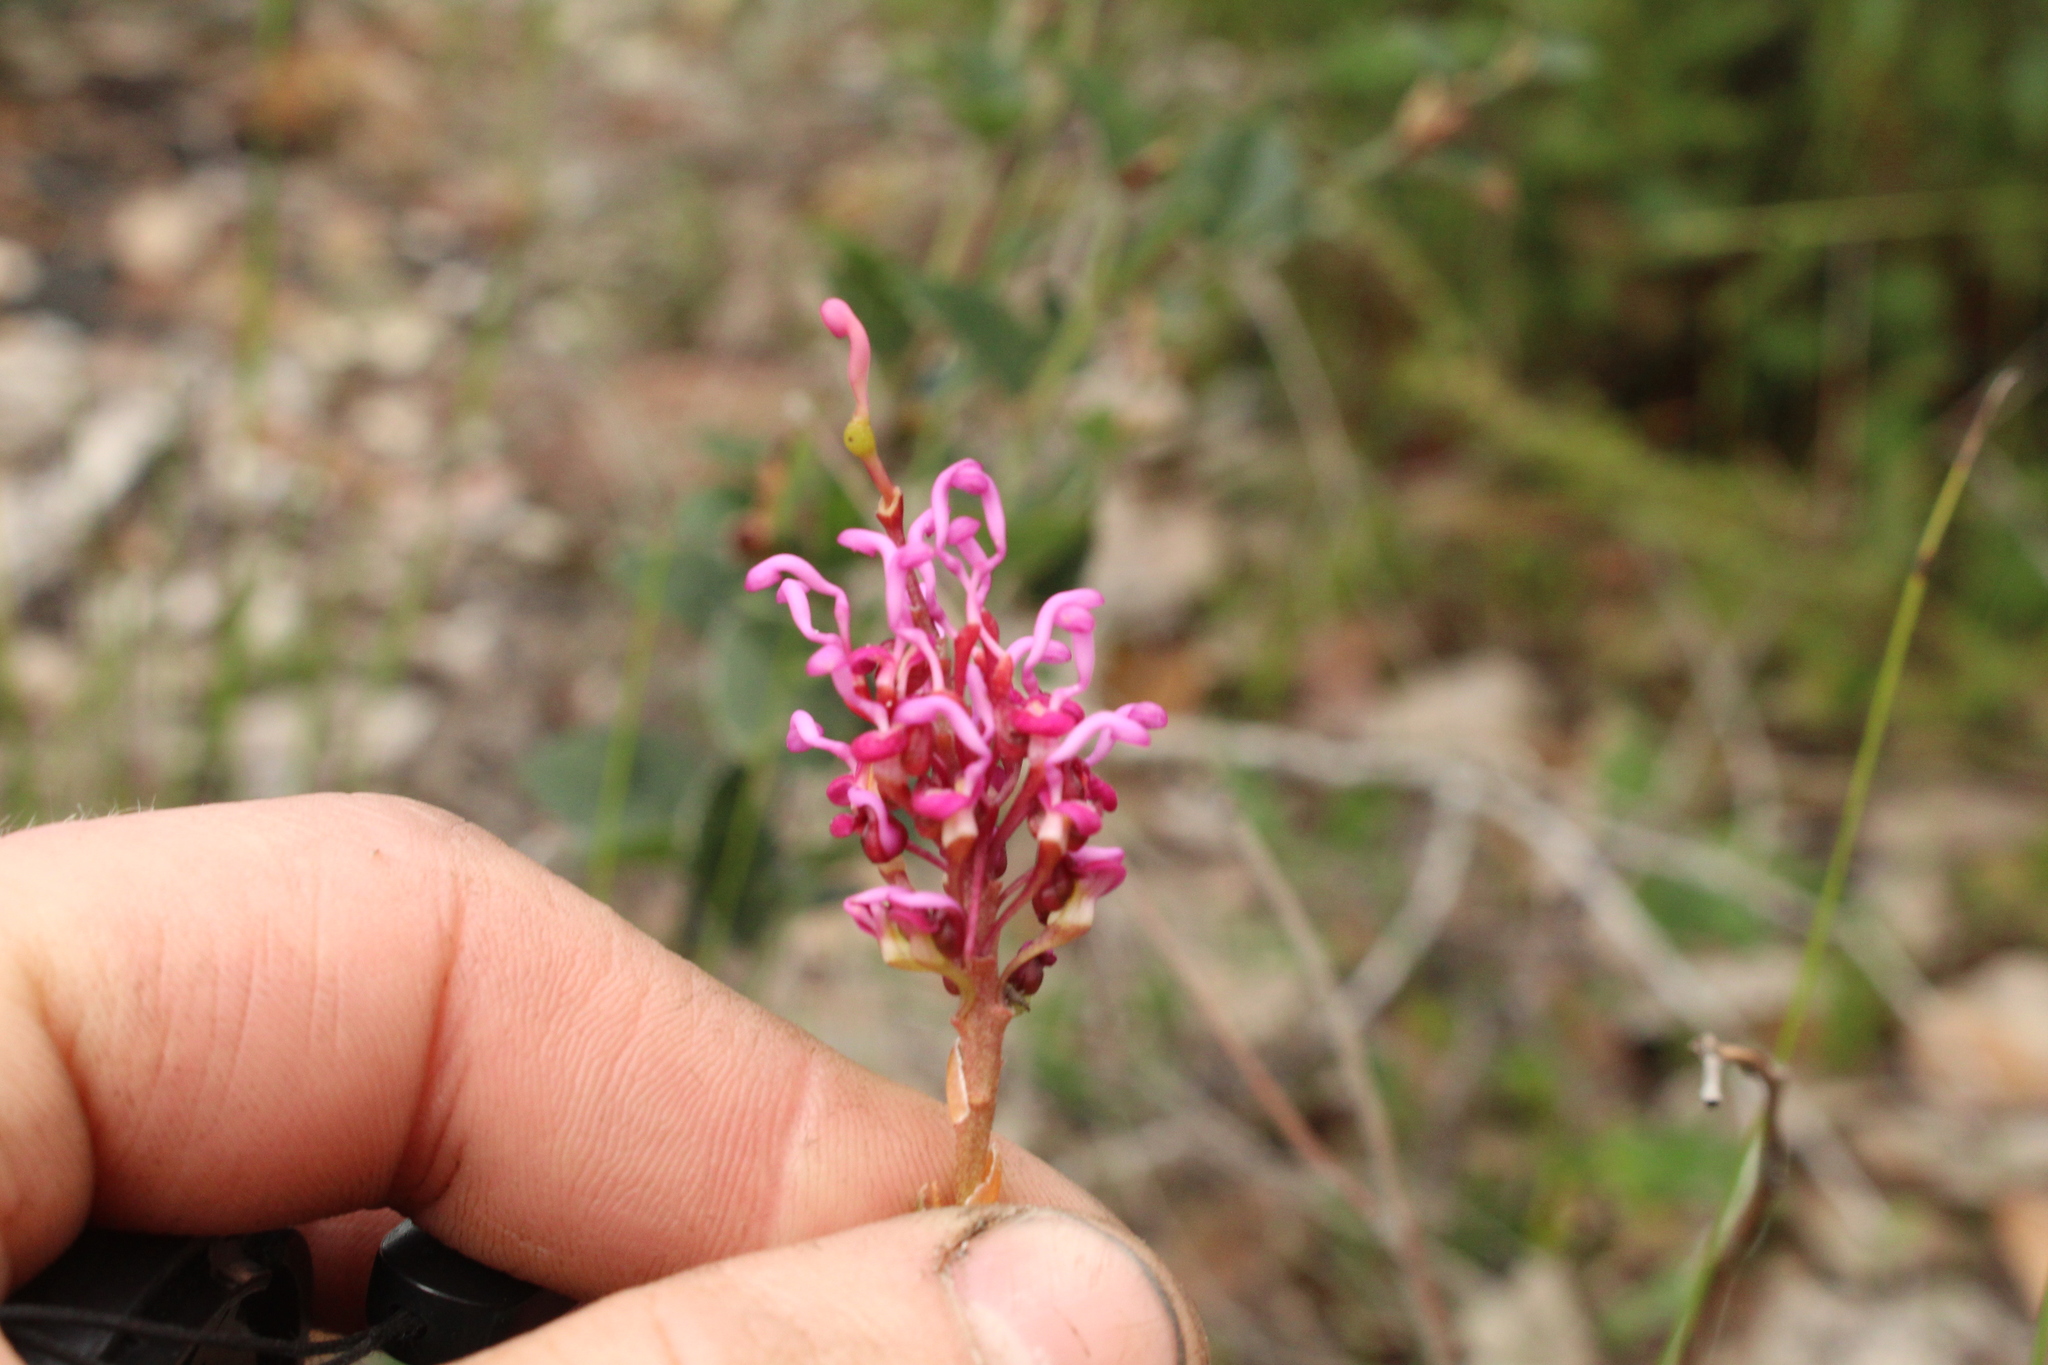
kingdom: Plantae
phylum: Tracheophyta
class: Magnoliopsida
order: Proteales
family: Proteaceae
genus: Grevillea
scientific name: Grevillea quercifolia
